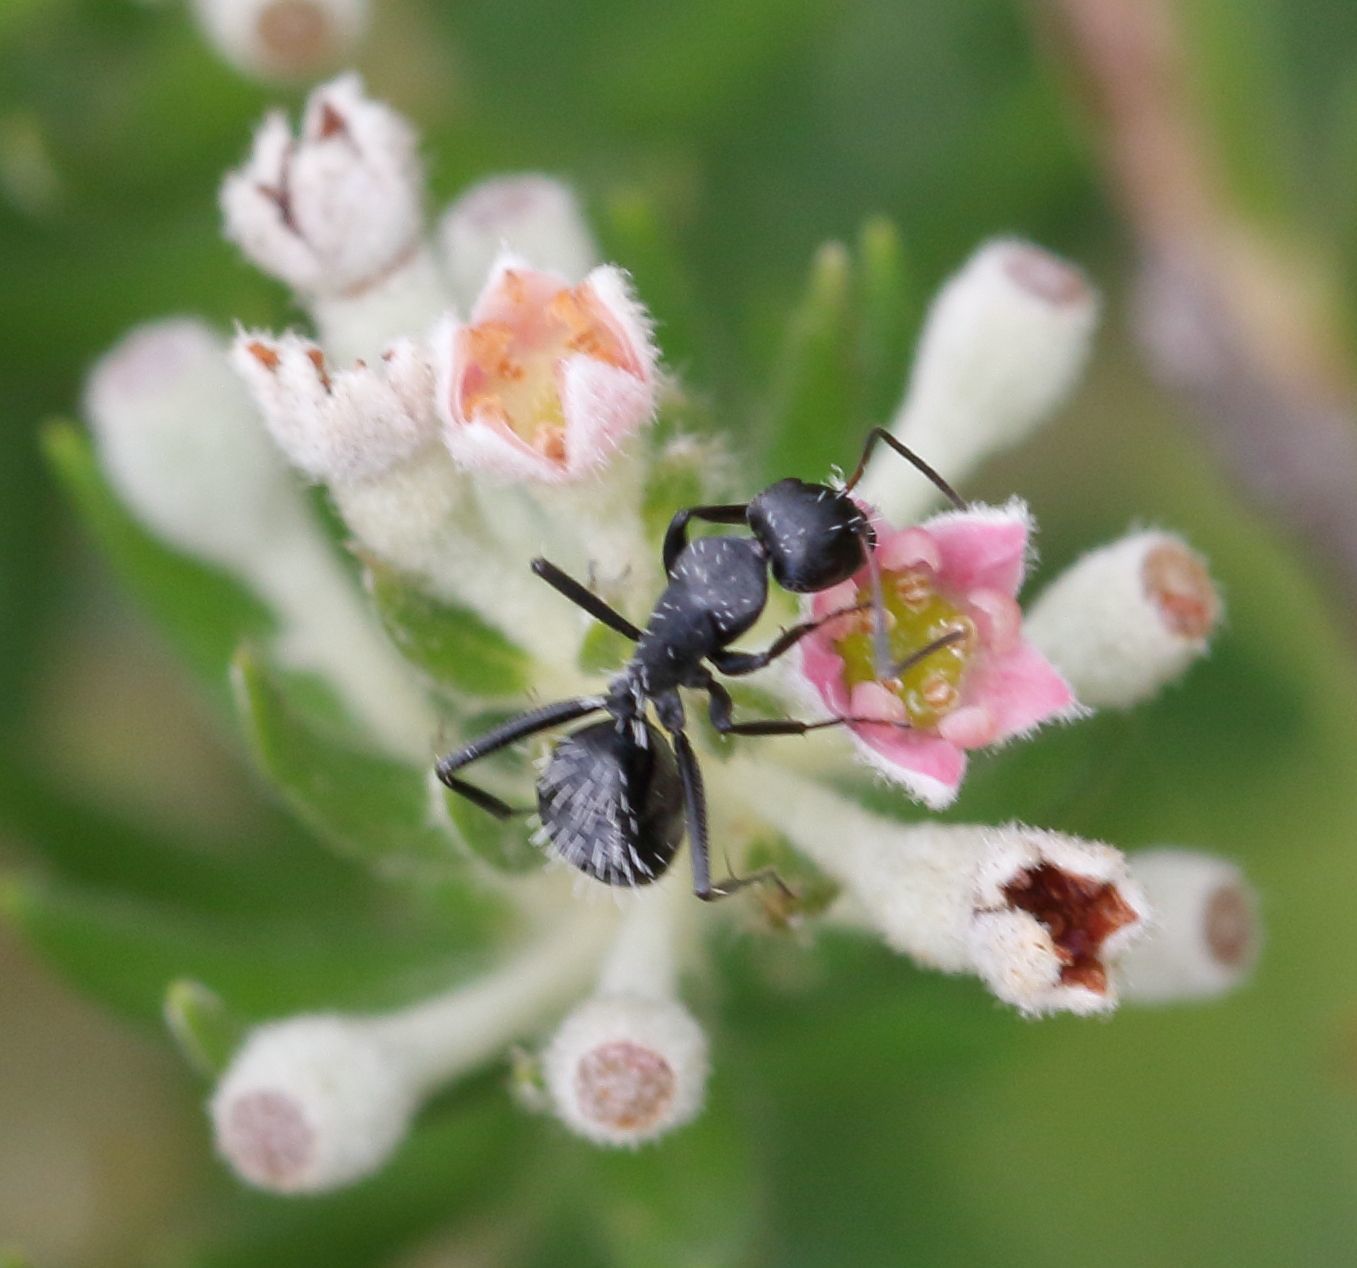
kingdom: Animalia
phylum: Arthropoda
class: Insecta
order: Hymenoptera
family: Formicidae
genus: Camponotus
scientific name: Camponotus niveosetosus
